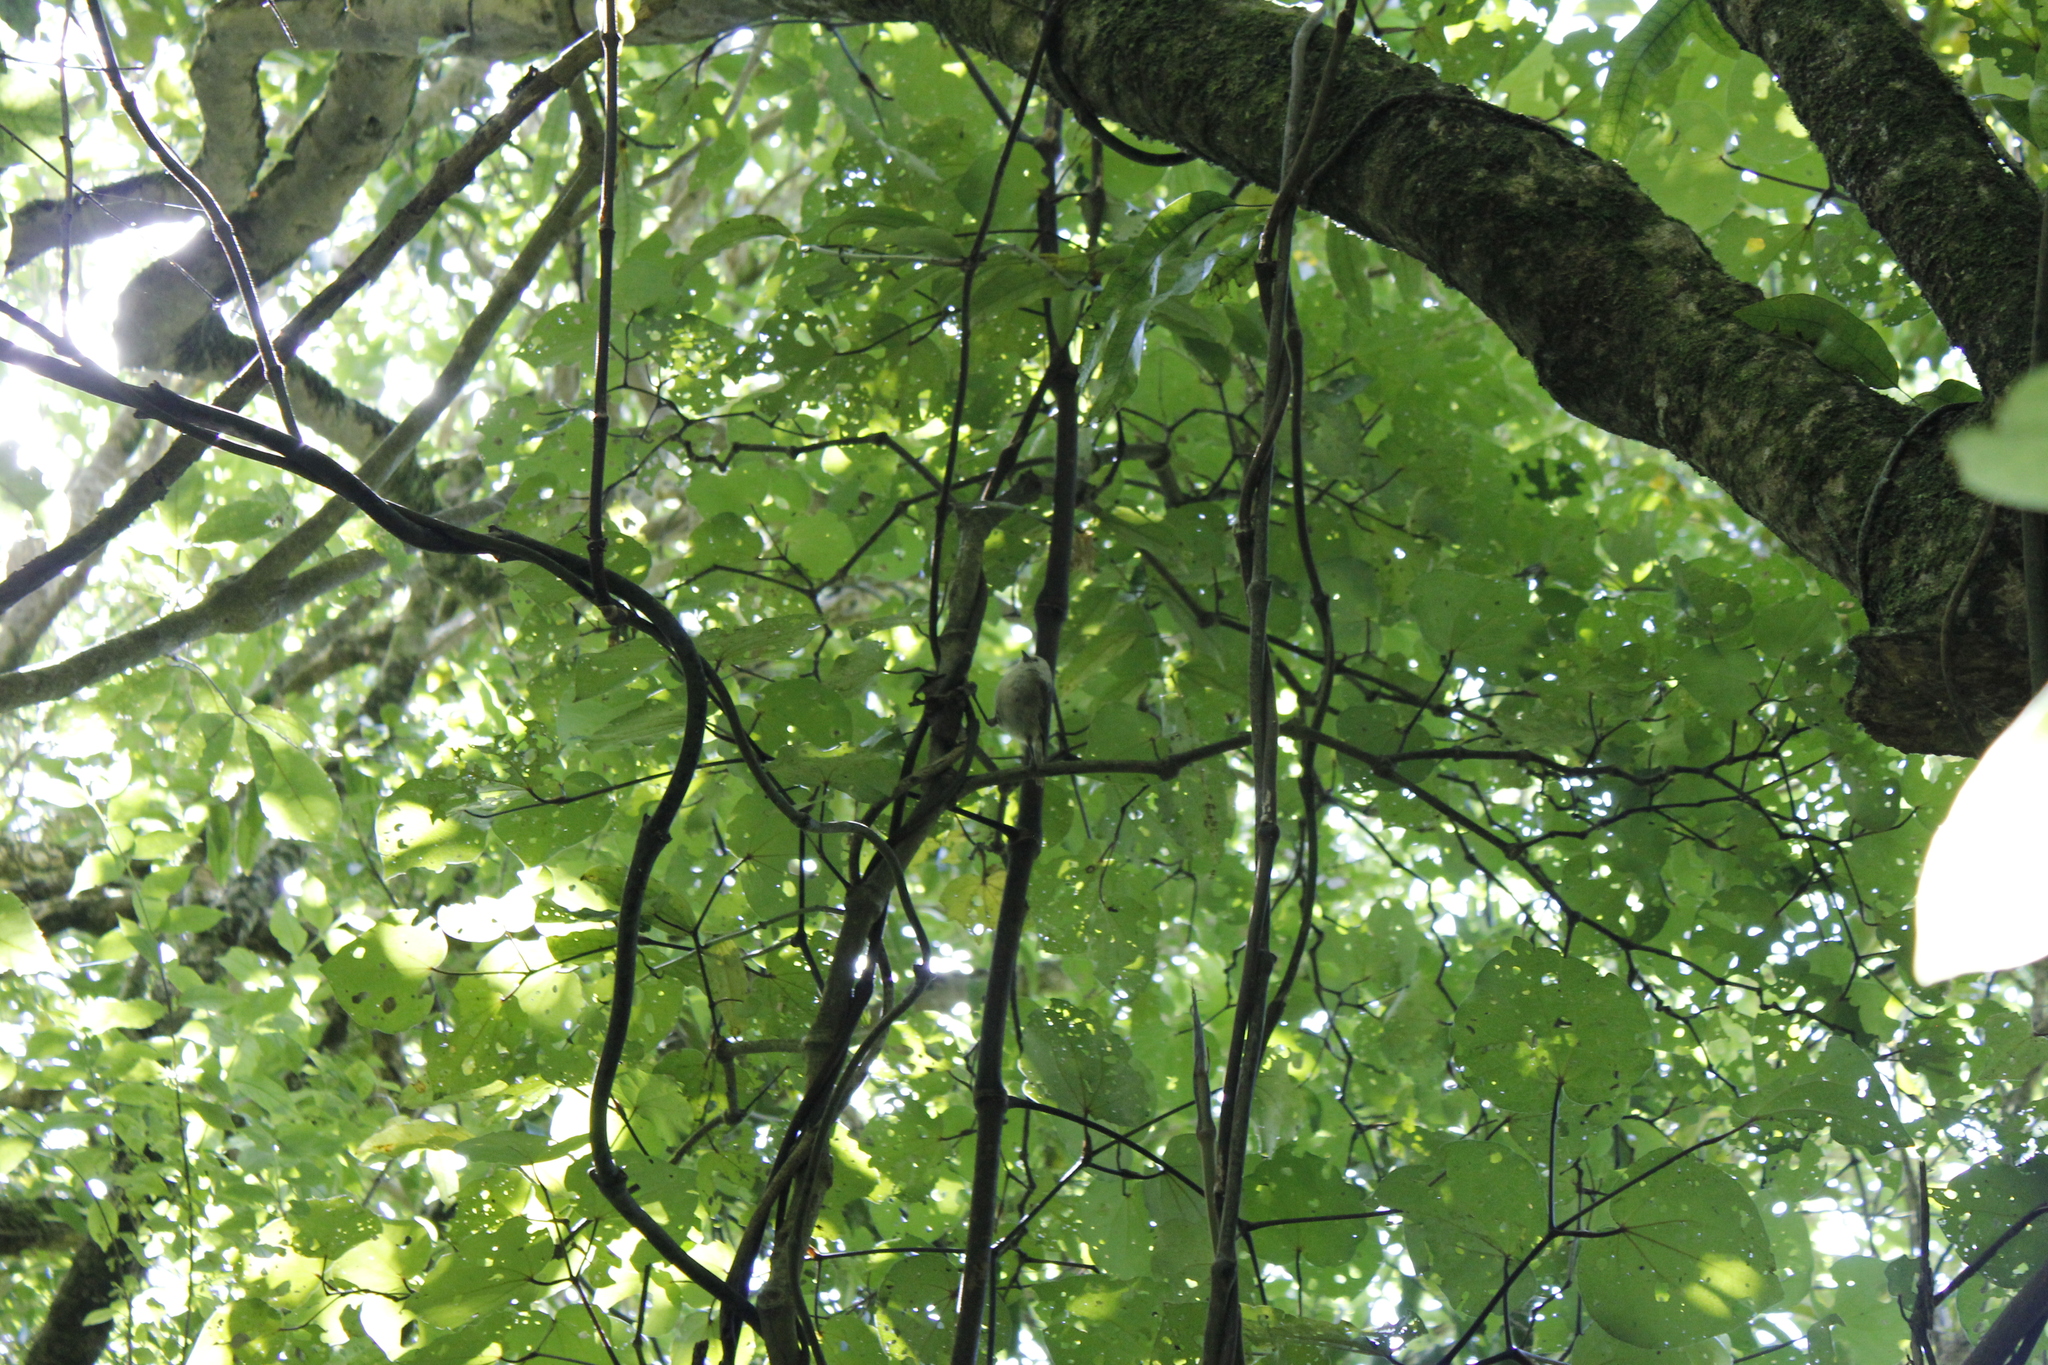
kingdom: Animalia
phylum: Chordata
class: Aves
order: Passeriformes
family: Acanthizidae
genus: Mohoua
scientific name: Mohoua albicilla
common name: Whitehead
